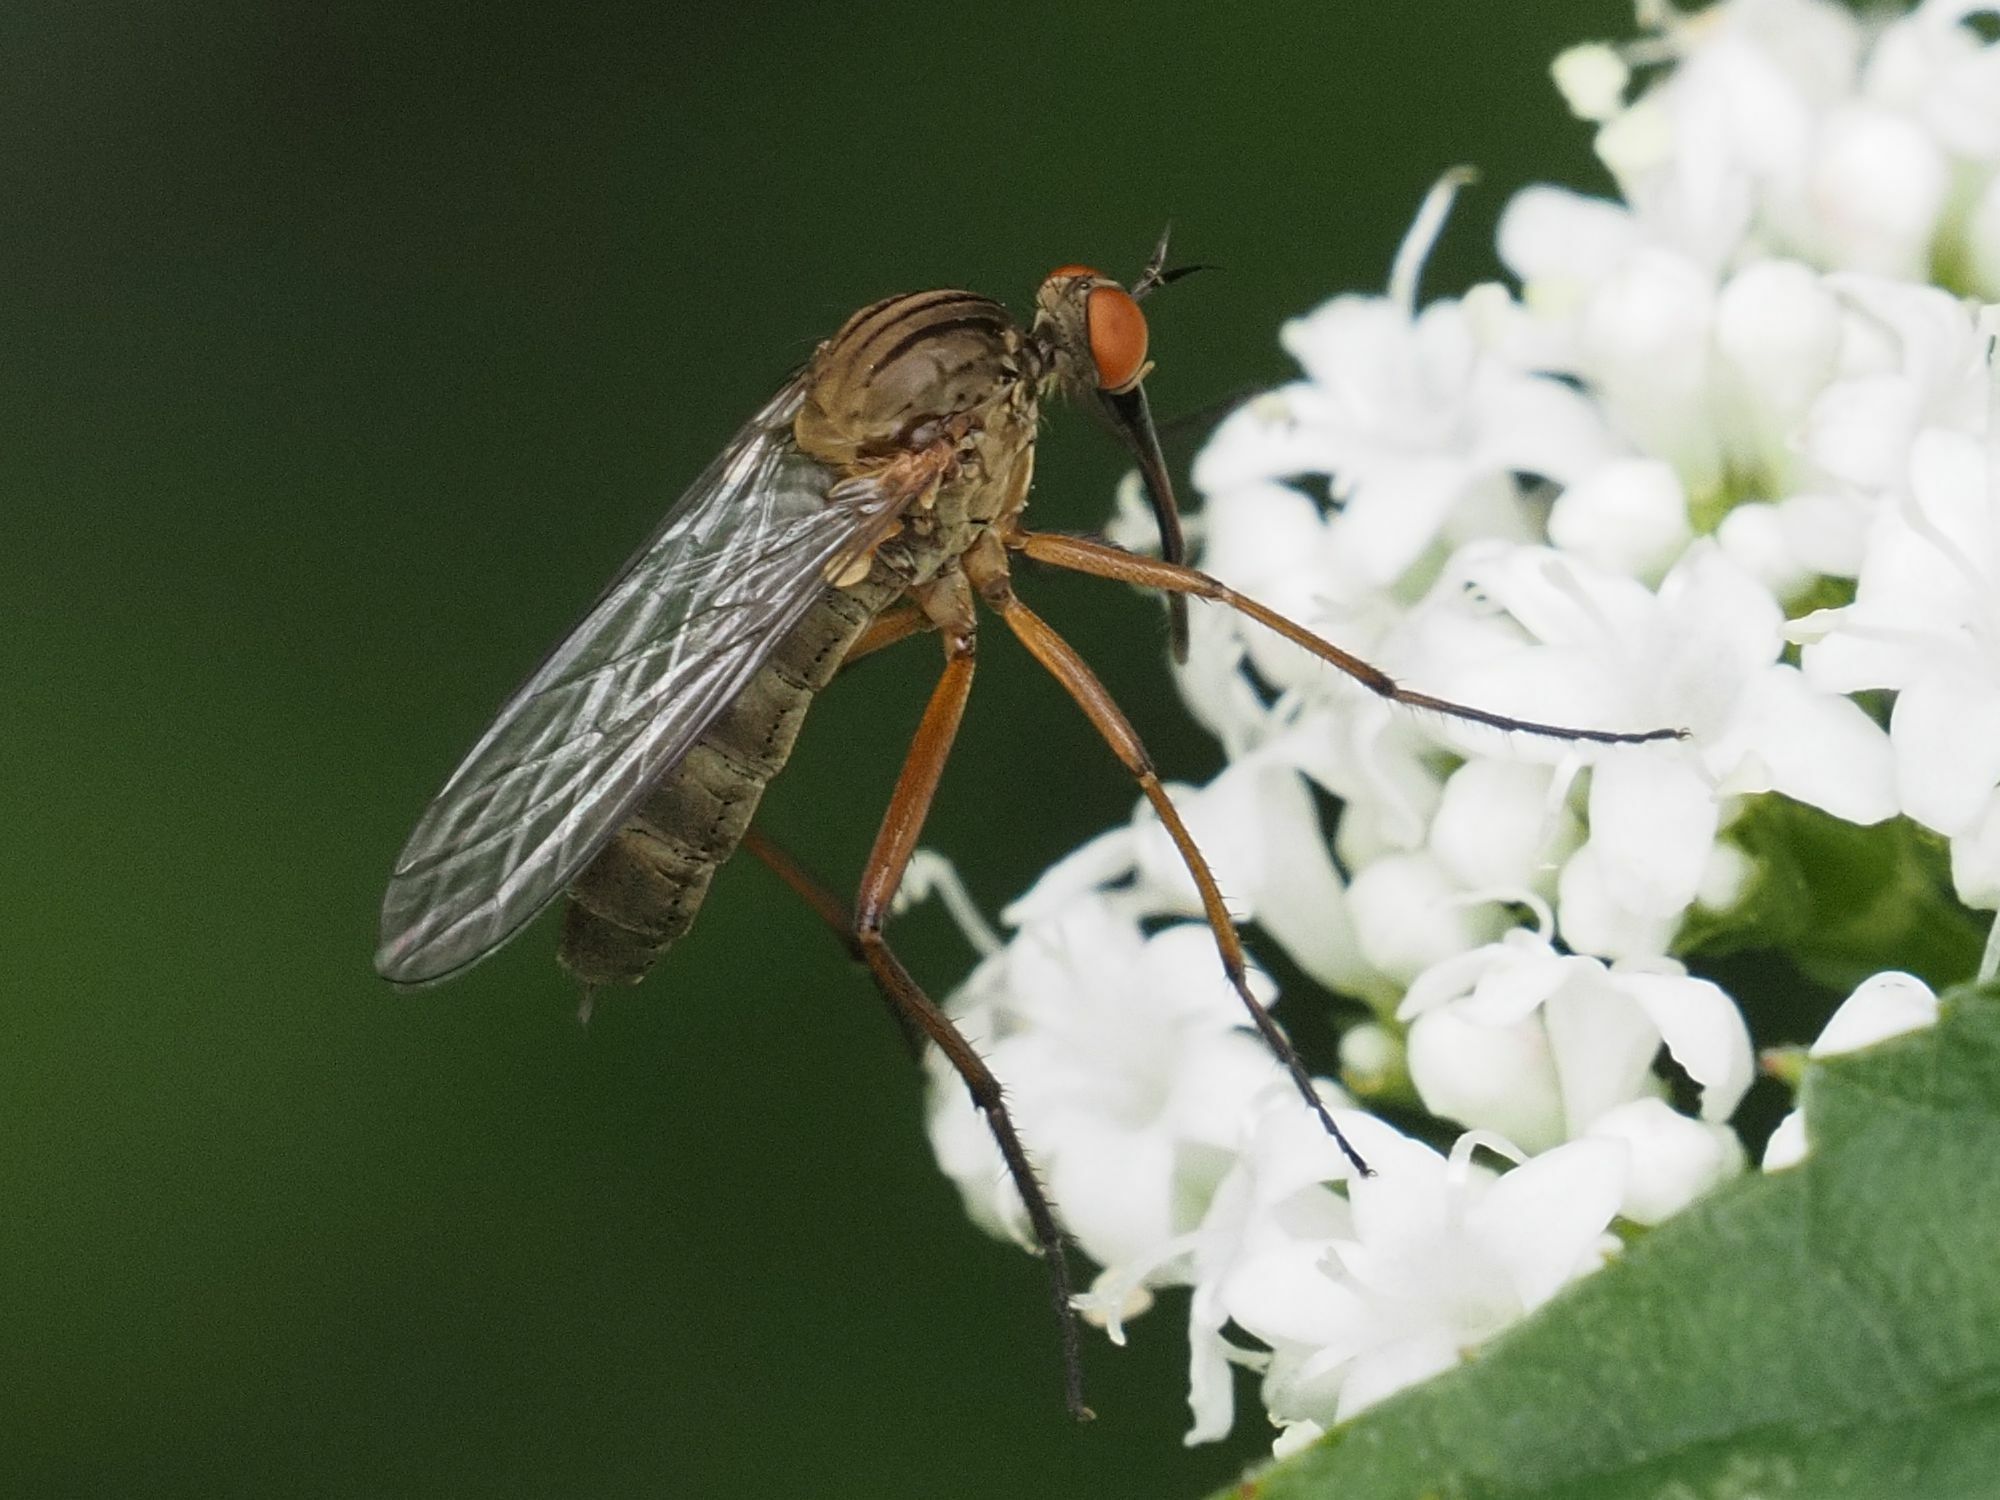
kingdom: Animalia
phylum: Arthropoda
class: Insecta
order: Diptera
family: Empididae
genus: Empis
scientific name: Empis livida
